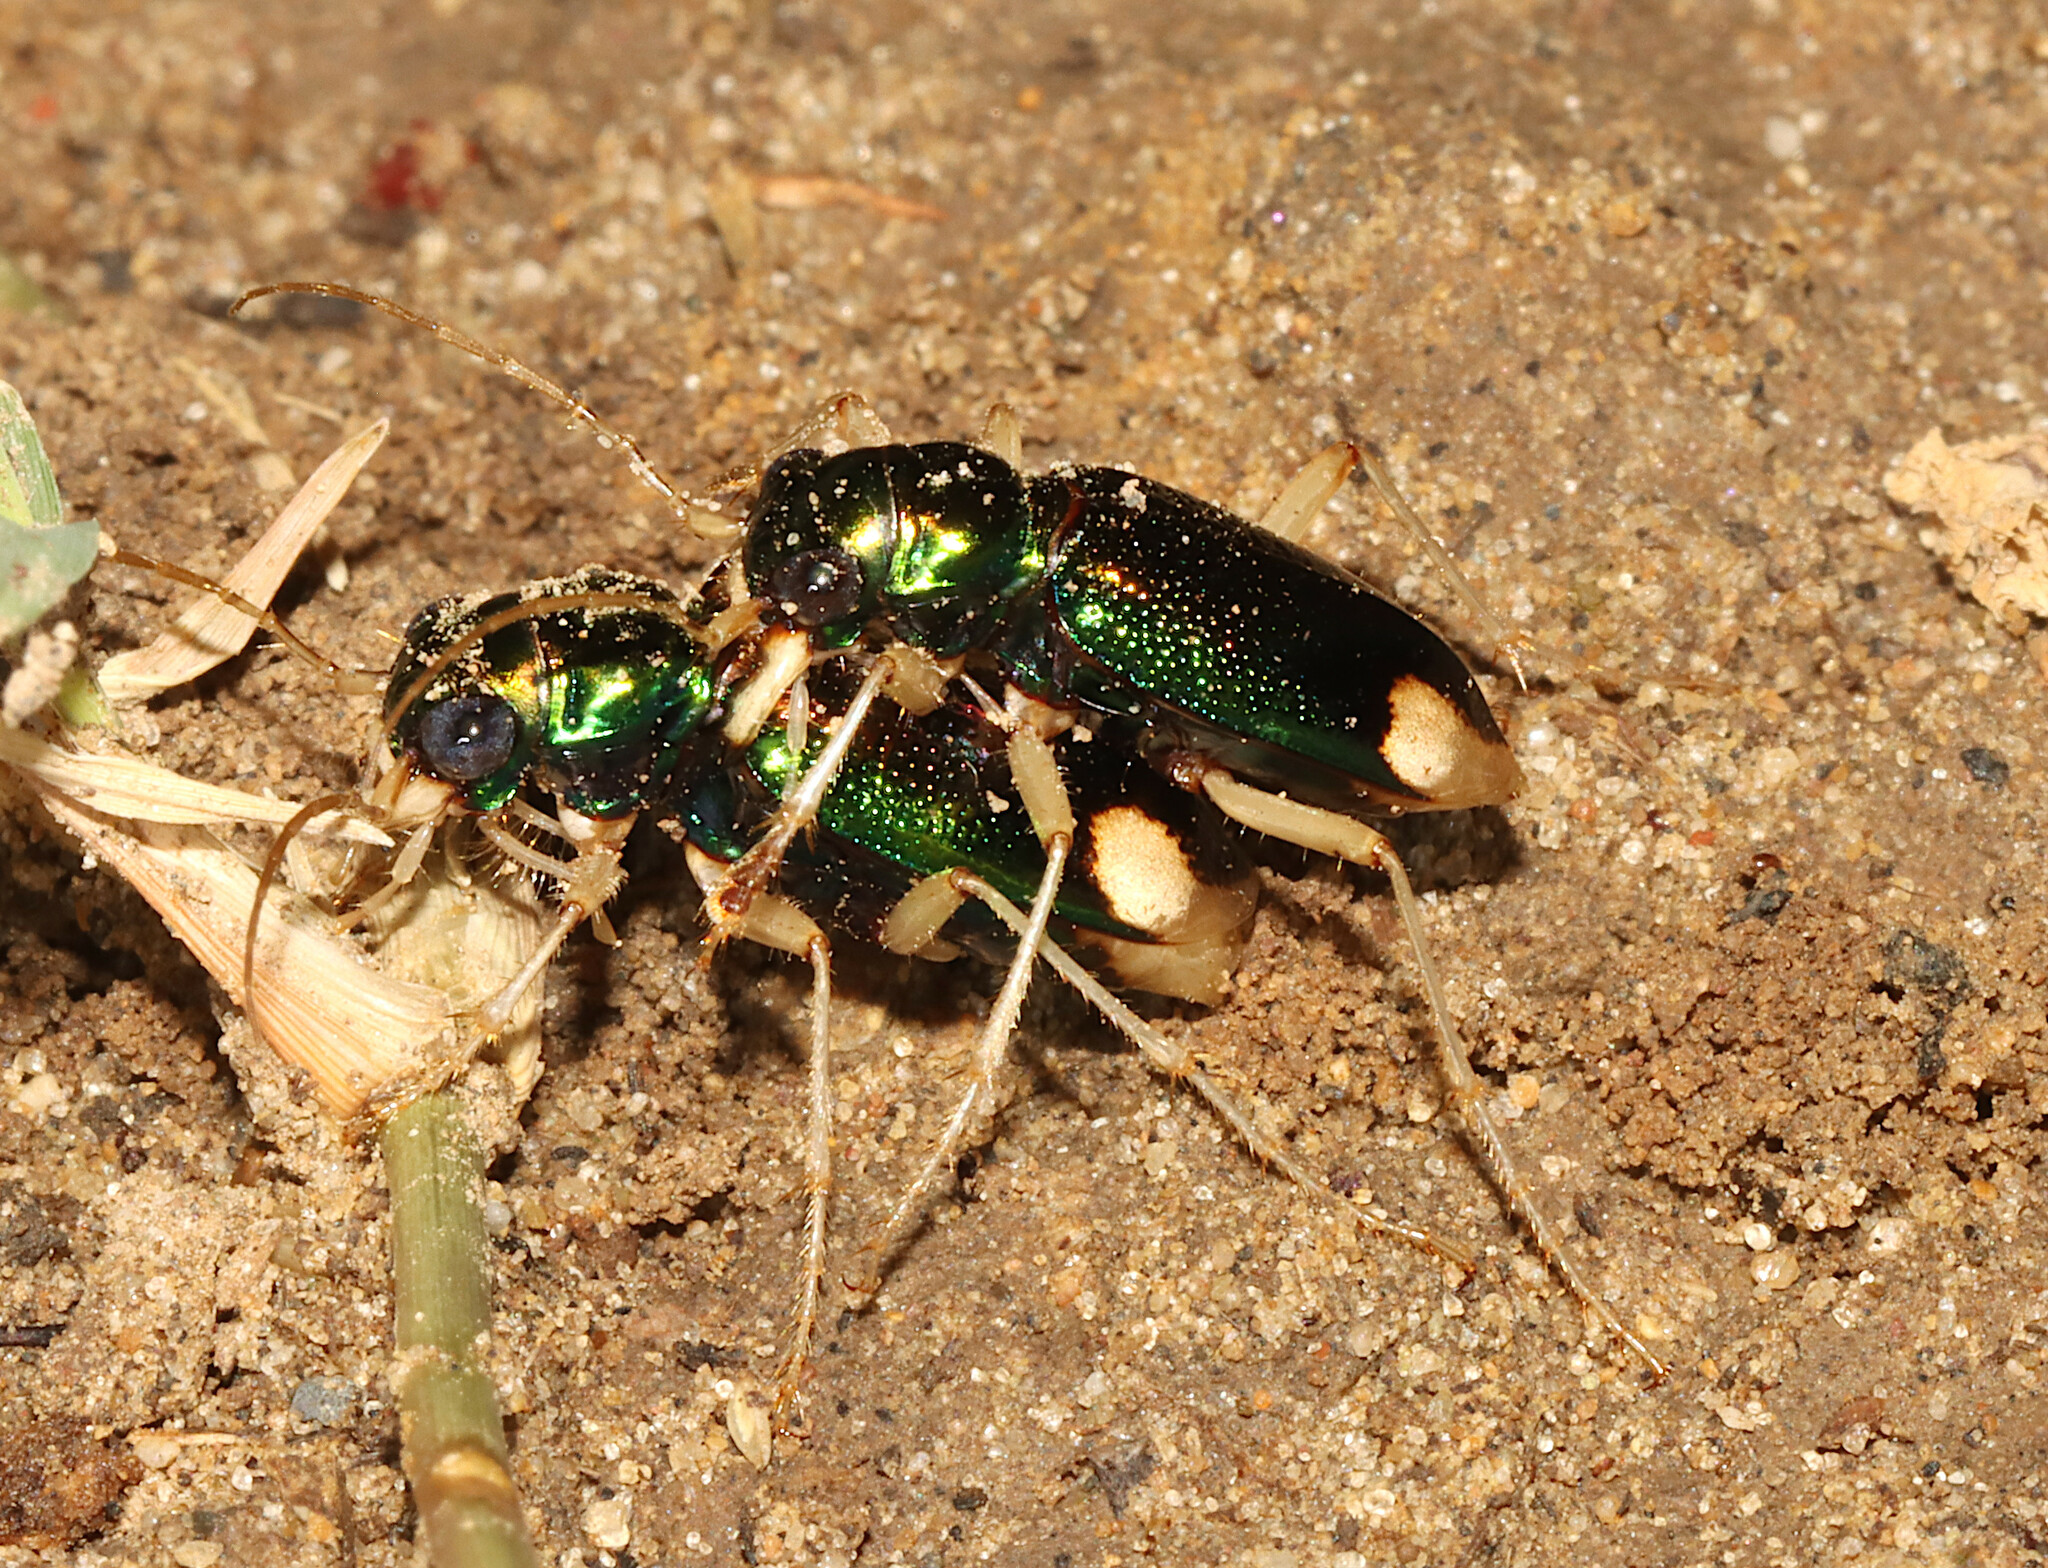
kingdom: Animalia
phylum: Arthropoda
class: Insecta
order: Coleoptera
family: Carabidae
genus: Tetracha
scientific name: Tetracha carolina
